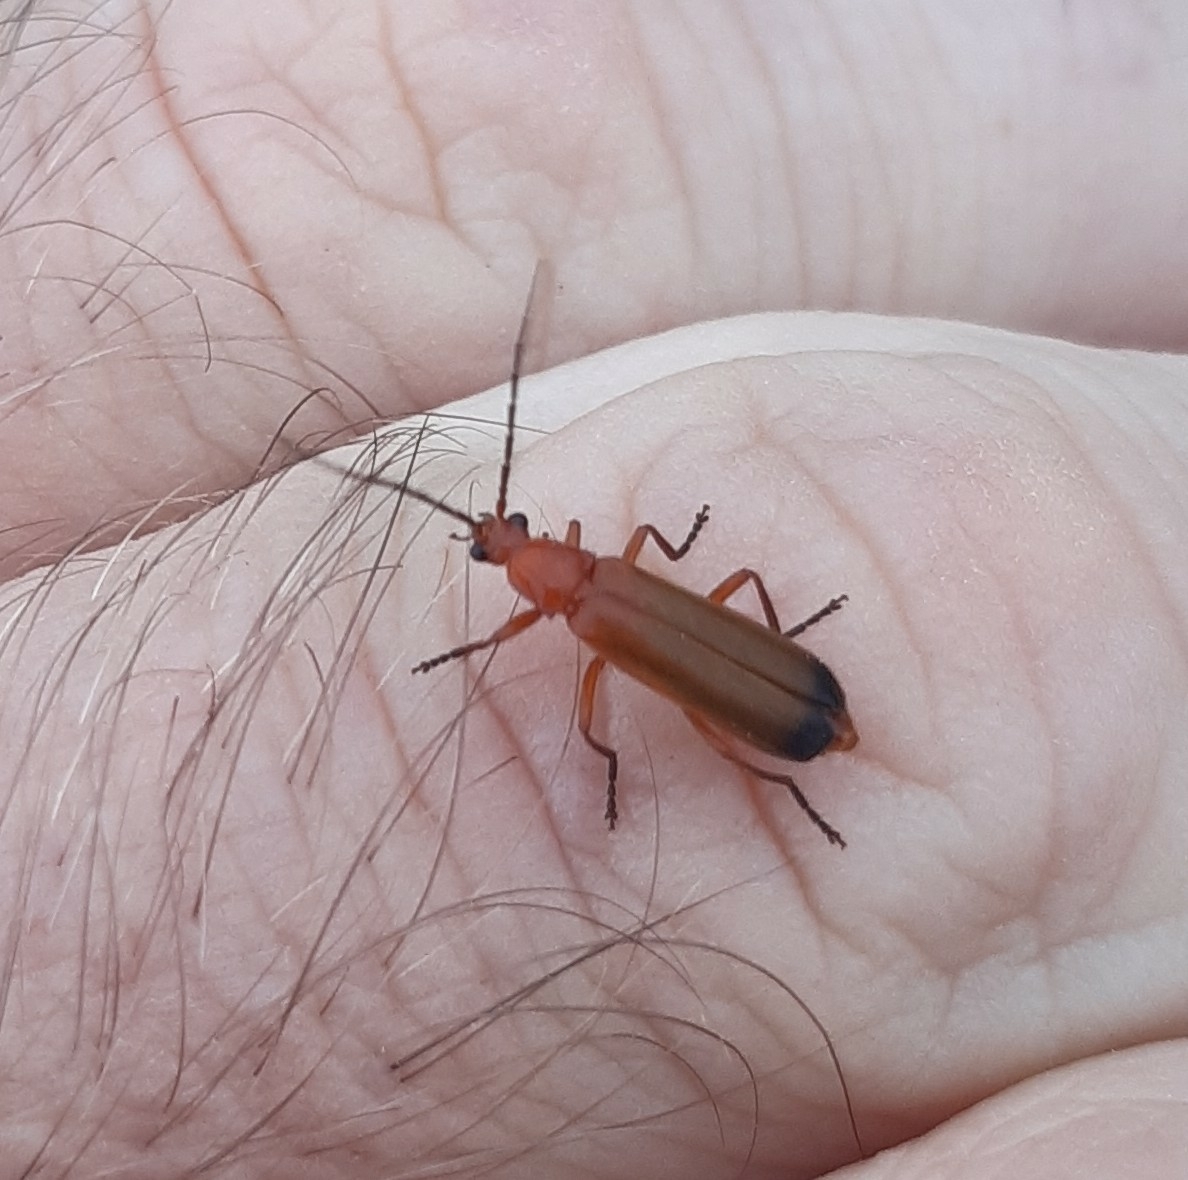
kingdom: Animalia
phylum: Arthropoda
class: Insecta
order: Coleoptera
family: Cantharidae
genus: Rhagonycha
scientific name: Rhagonycha fulva
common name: Common red soldier beetle
